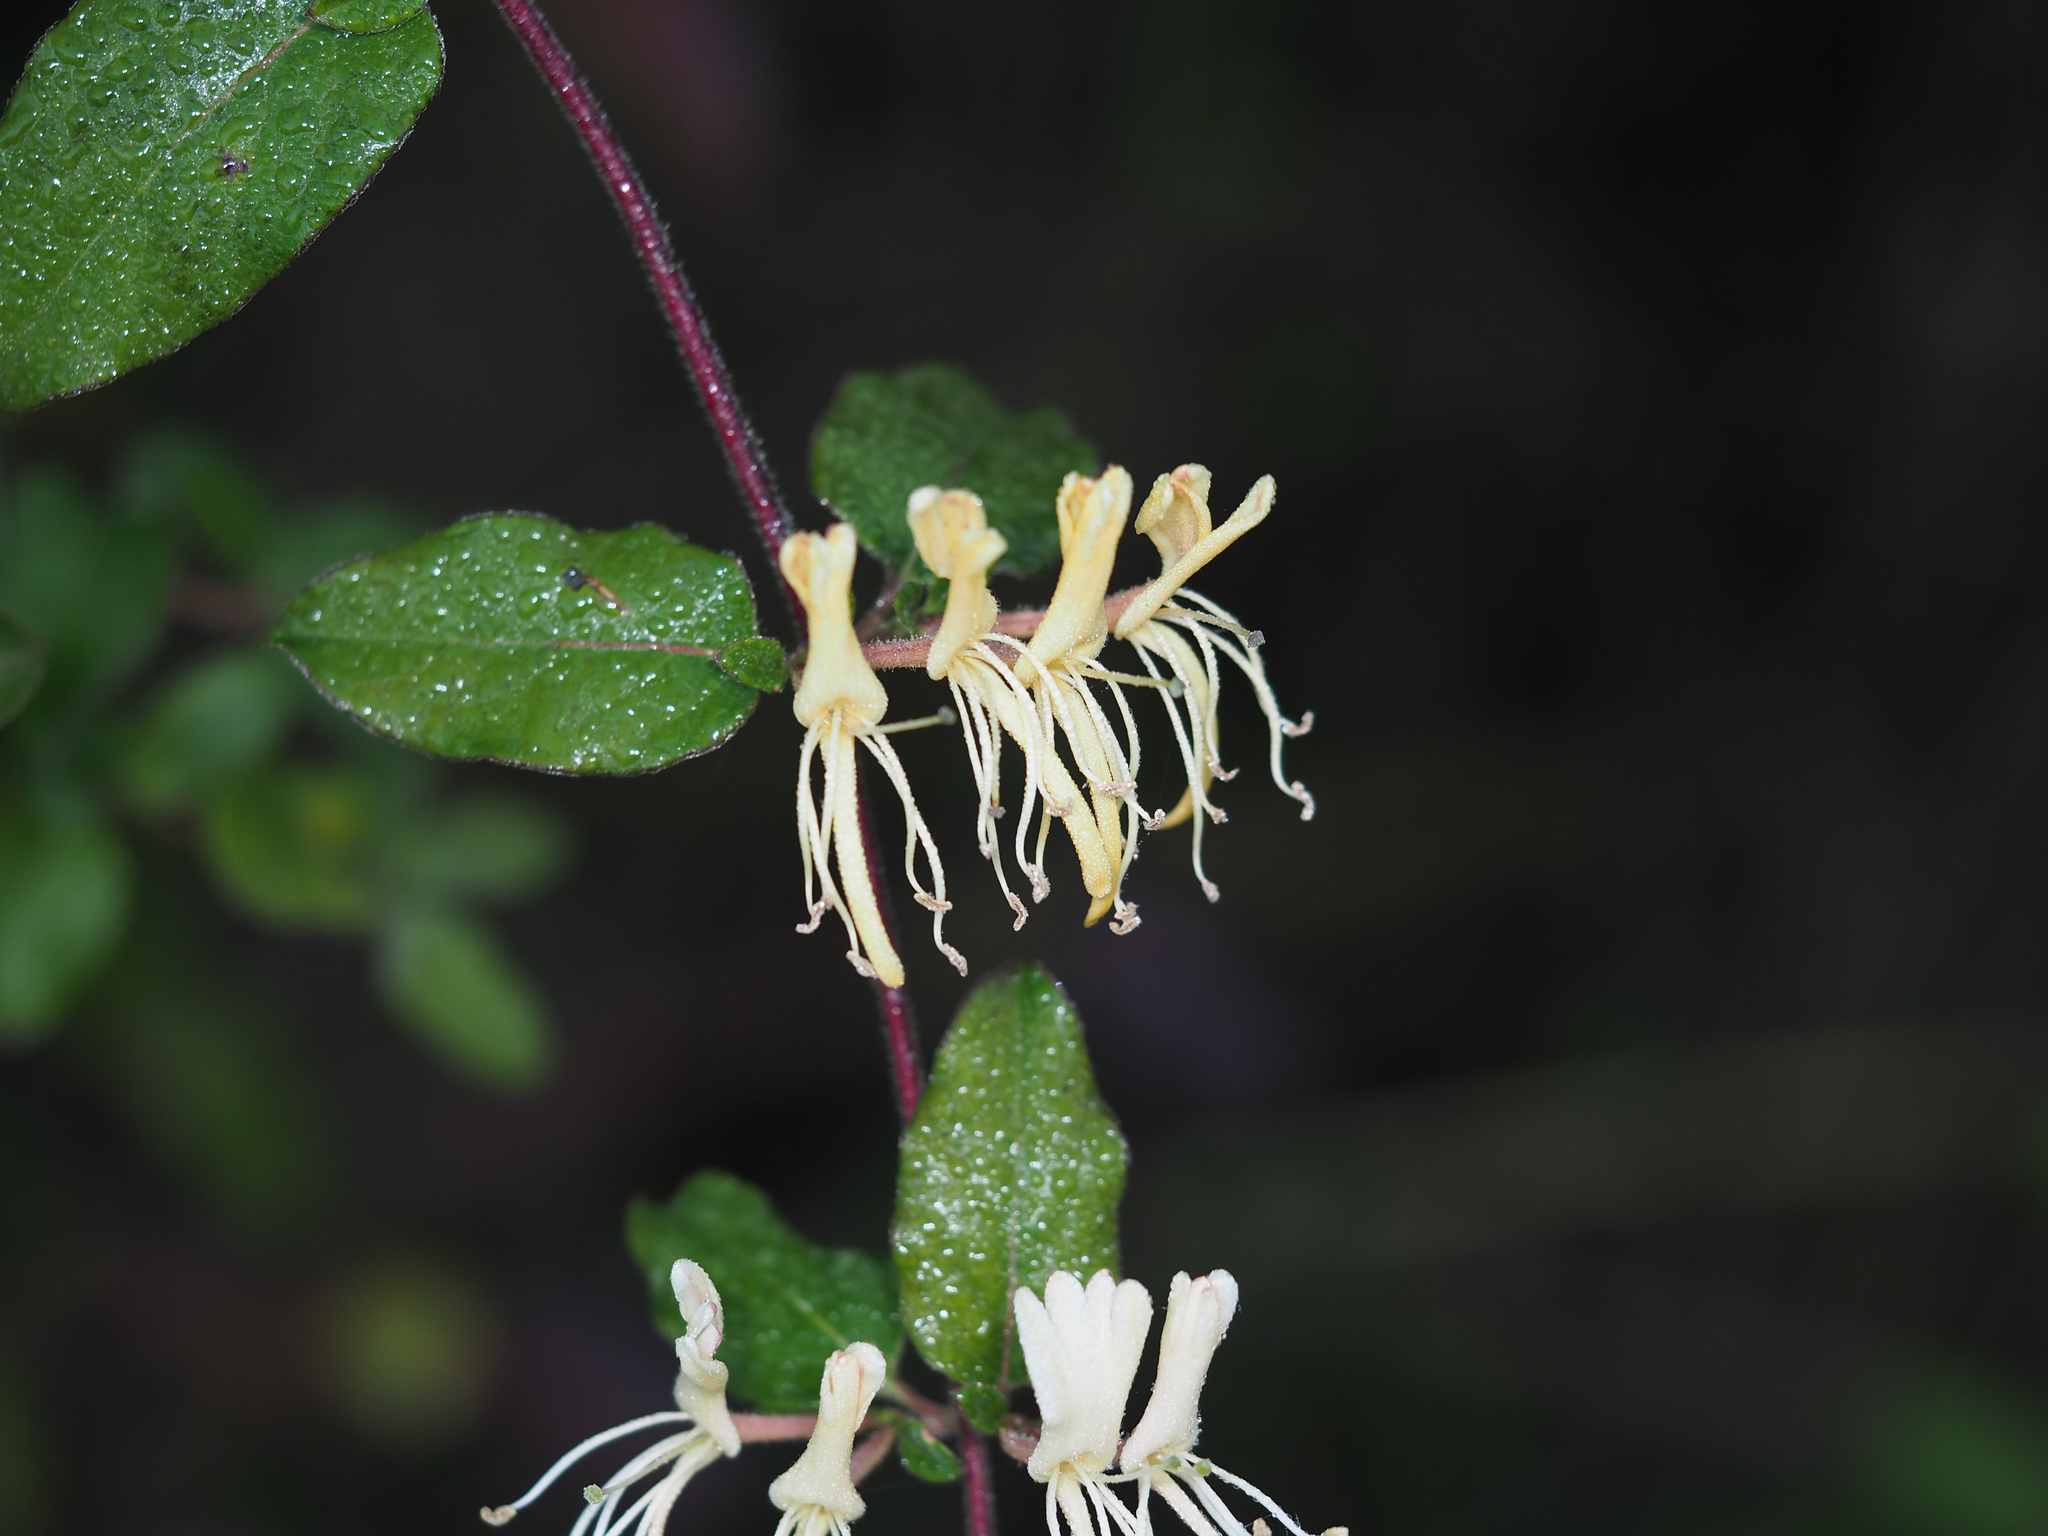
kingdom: Plantae
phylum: Tracheophyta
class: Magnoliopsida
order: Dipsacales
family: Caprifoliaceae
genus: Lonicera
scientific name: Lonicera japonica
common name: Japanese honeysuckle
